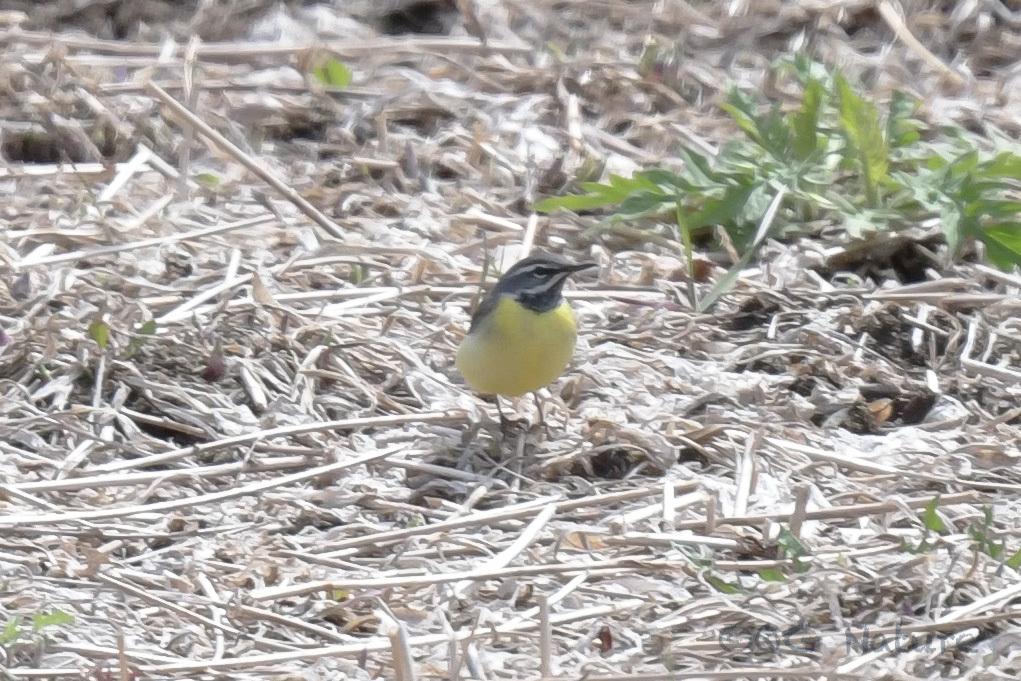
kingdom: Animalia
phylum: Chordata
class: Aves
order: Passeriformes
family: Motacillidae
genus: Motacilla
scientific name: Motacilla cinerea
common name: Grey wagtail
